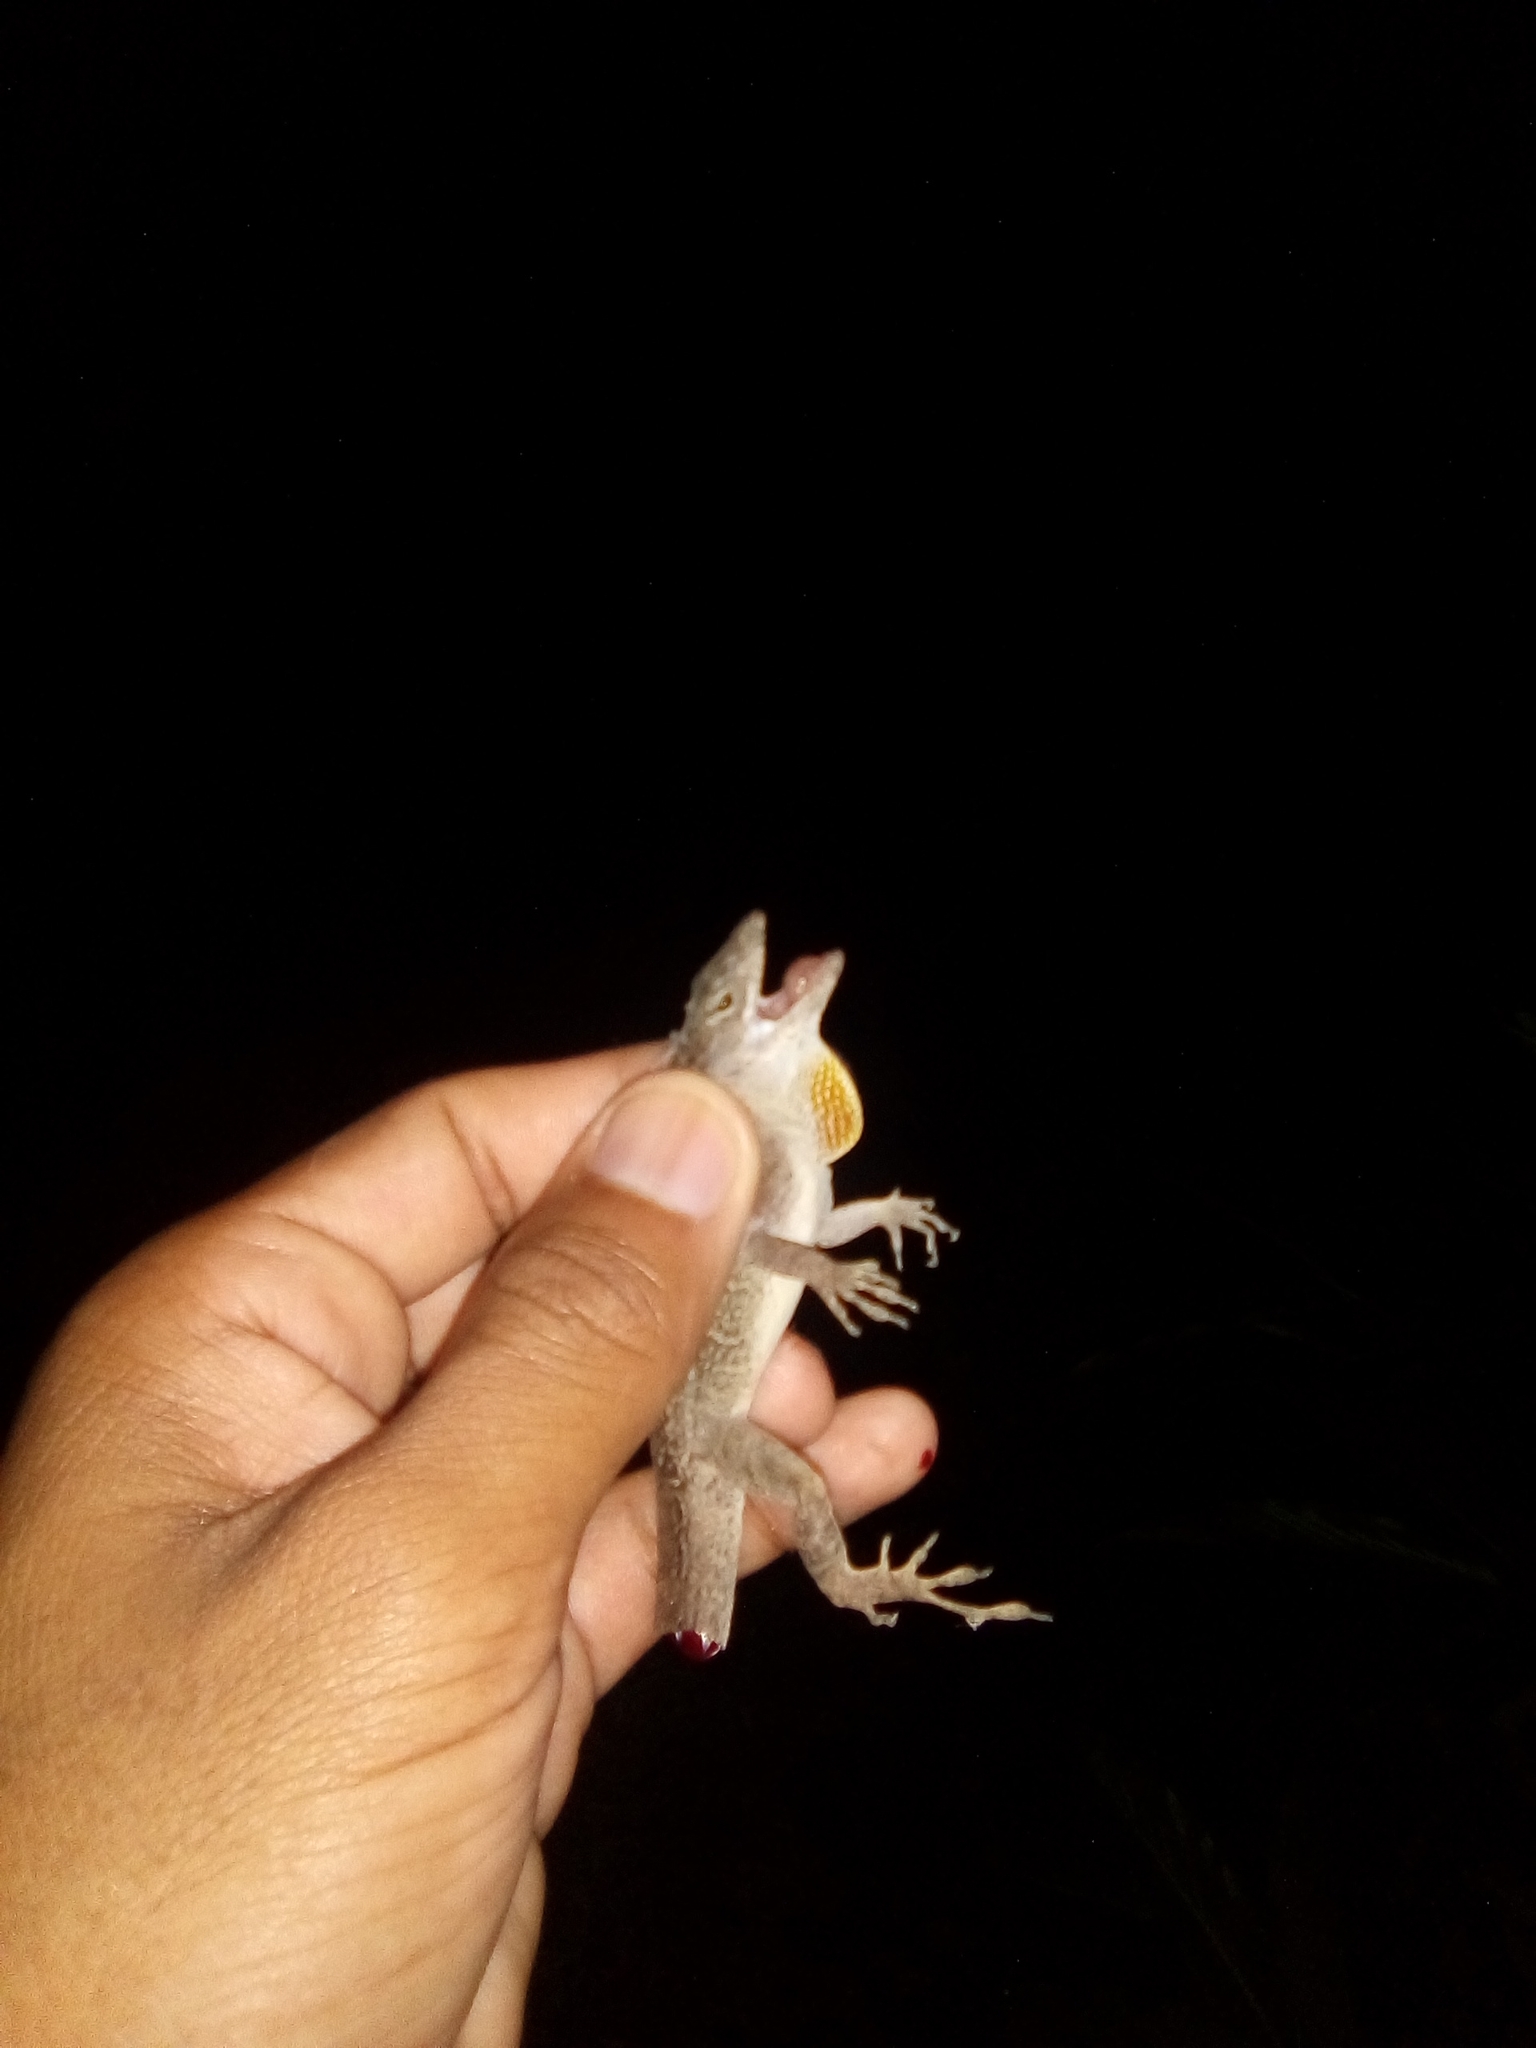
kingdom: Animalia
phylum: Chordata
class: Squamata
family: Dactyloidae
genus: Anolis
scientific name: Anolis sagrei
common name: Brown anole
